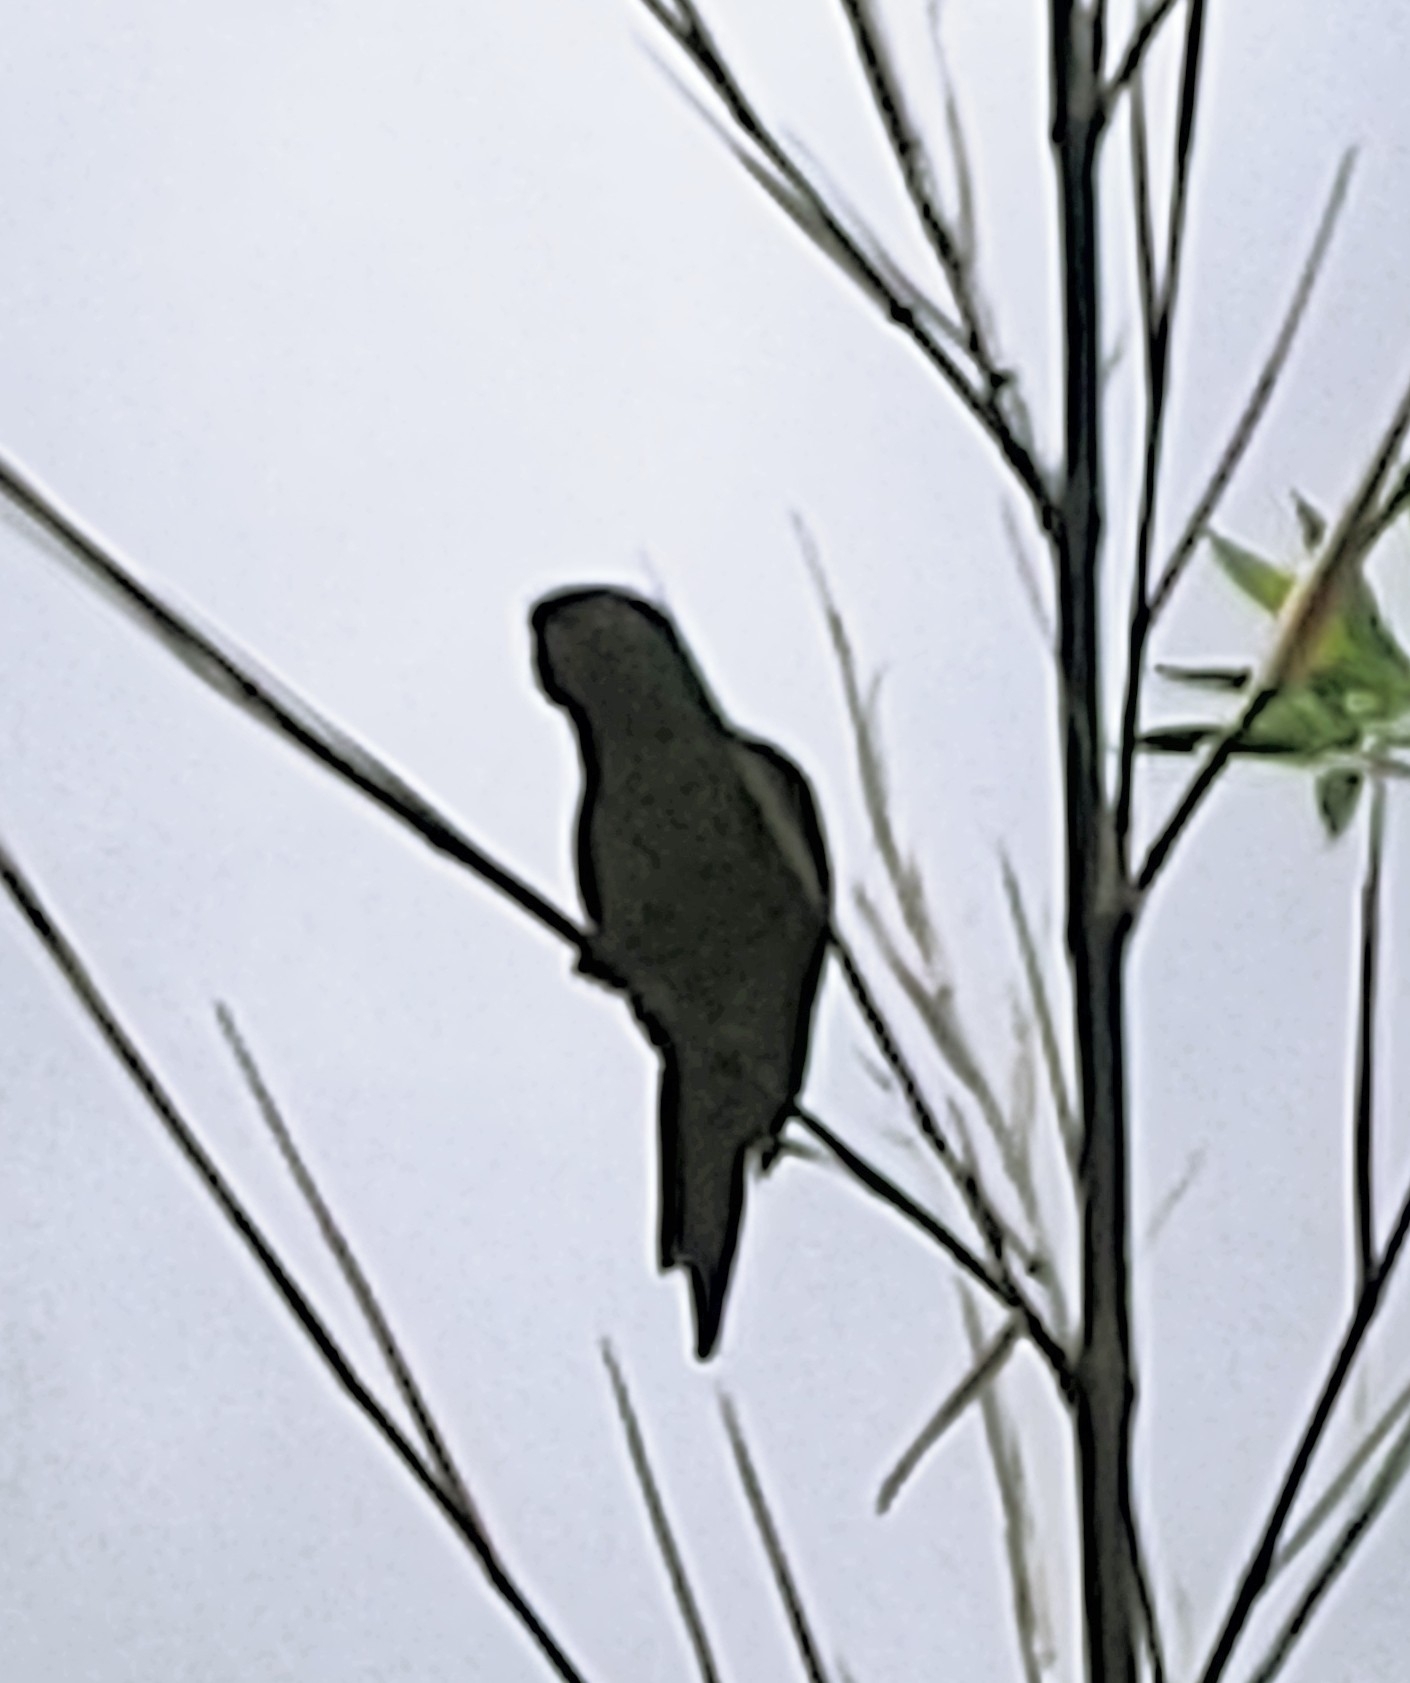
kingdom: Animalia
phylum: Chordata
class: Aves
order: Psittaciformes
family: Psittacidae
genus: Aratinga
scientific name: Aratinga leucophthalma
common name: White-eyed parakeet
